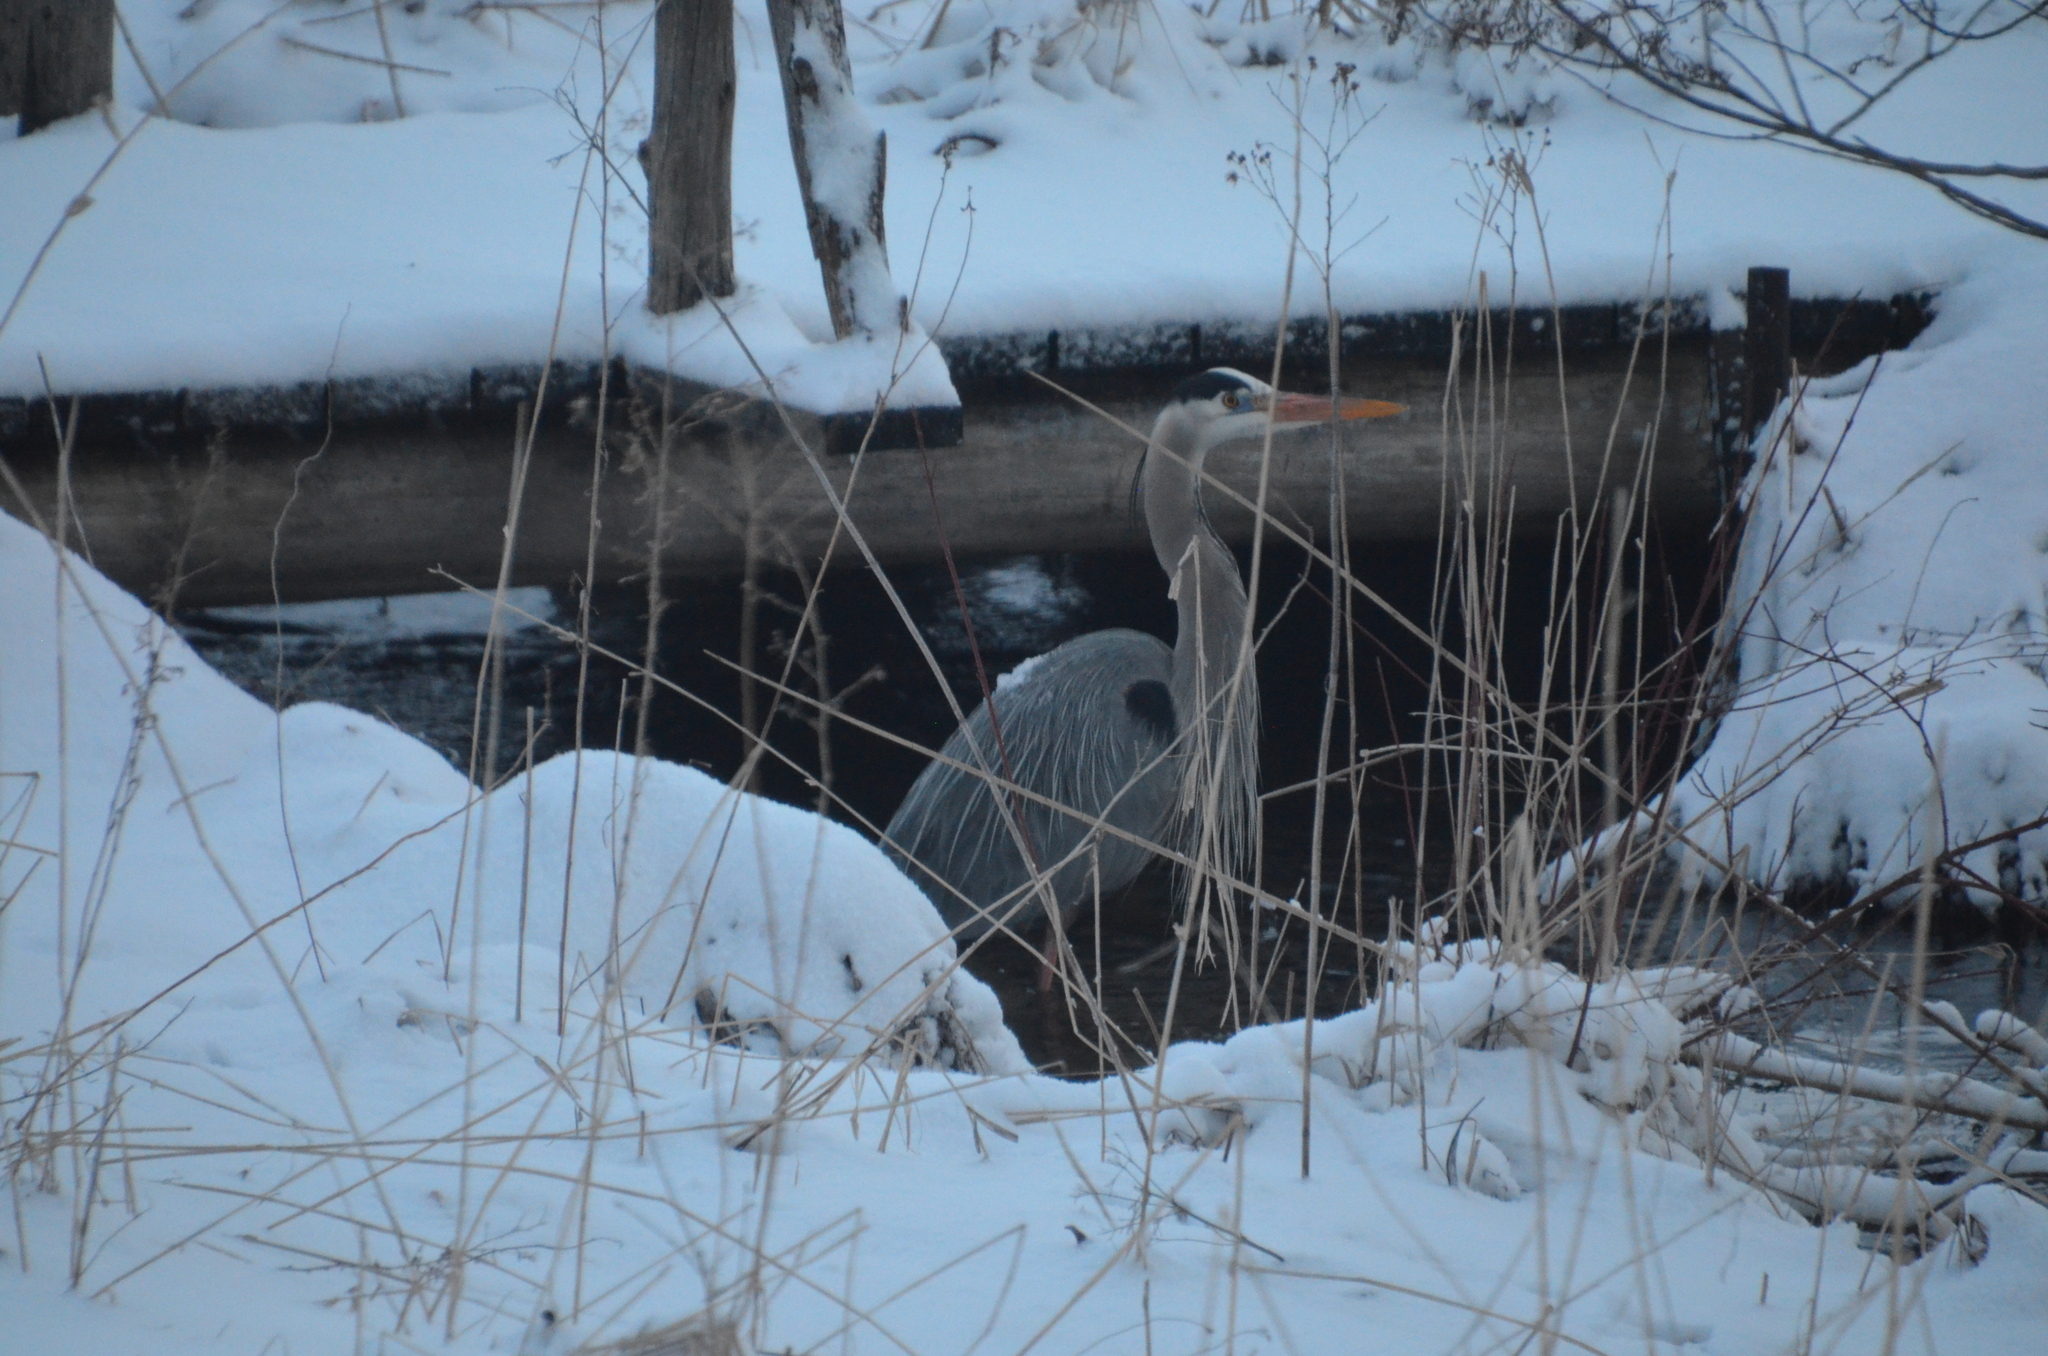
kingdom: Animalia
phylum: Chordata
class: Aves
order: Pelecaniformes
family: Ardeidae
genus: Ardea
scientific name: Ardea herodias
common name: Great blue heron
